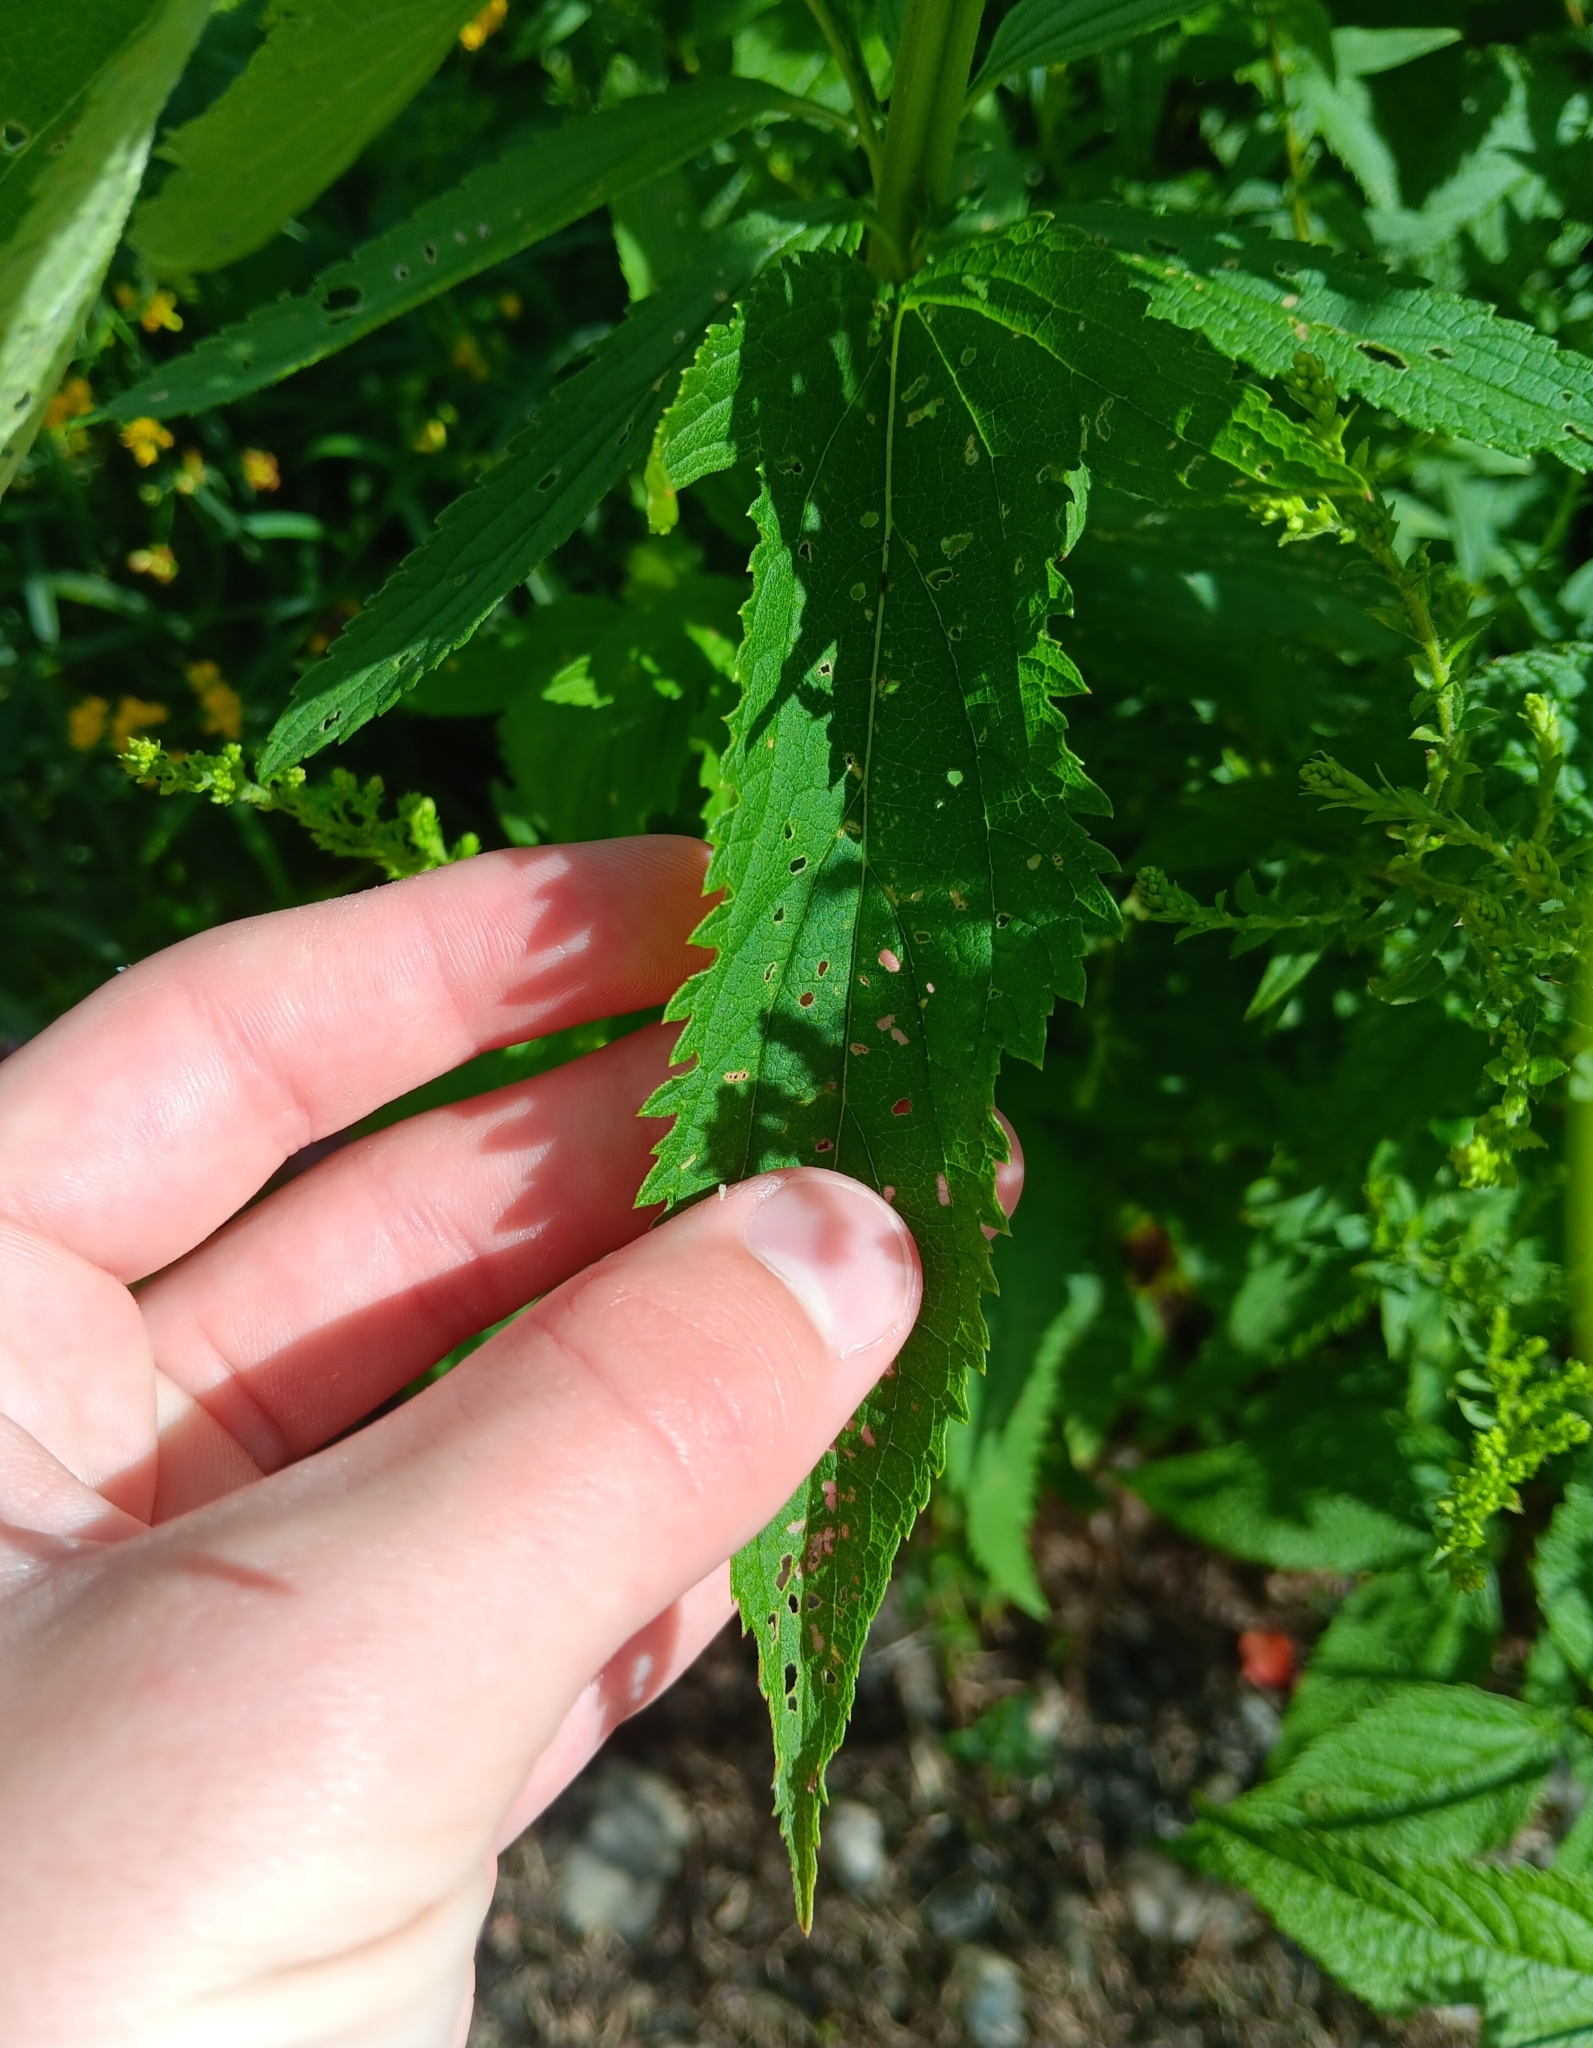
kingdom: Plantae
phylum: Tracheophyta
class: Magnoliopsida
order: Lamiales
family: Verbenaceae
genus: Verbena
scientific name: Verbena hastata
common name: American blue vervain
